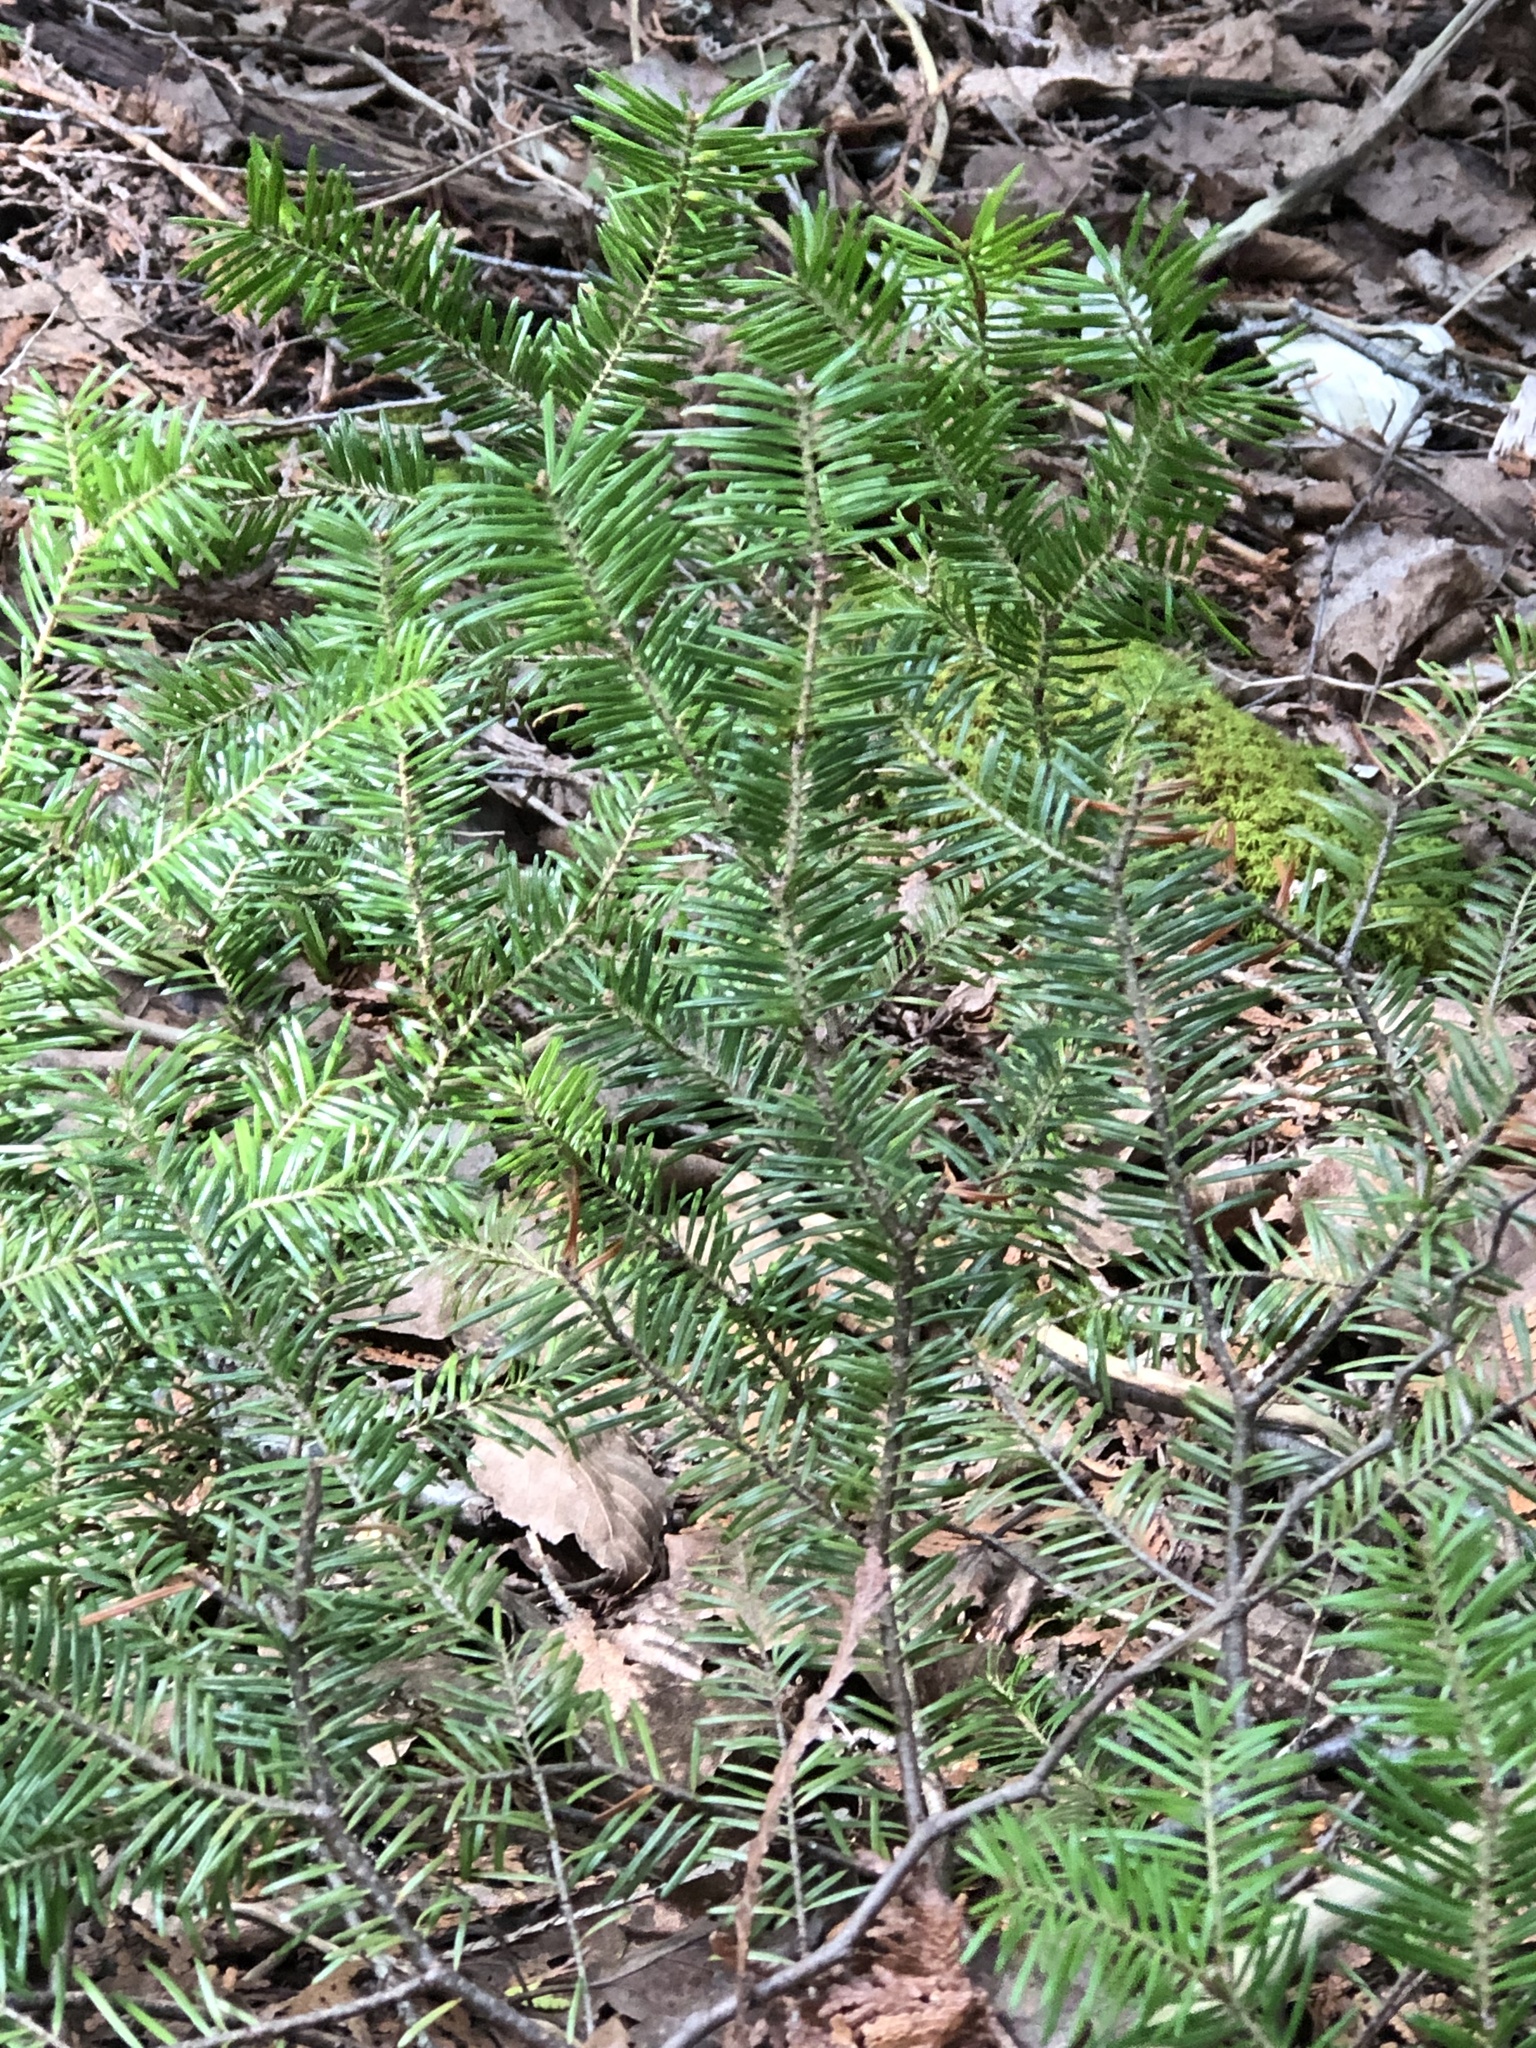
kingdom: Plantae
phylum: Tracheophyta
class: Pinopsida
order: Pinales
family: Pinaceae
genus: Abies
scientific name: Abies balsamea
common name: Balsam fir
